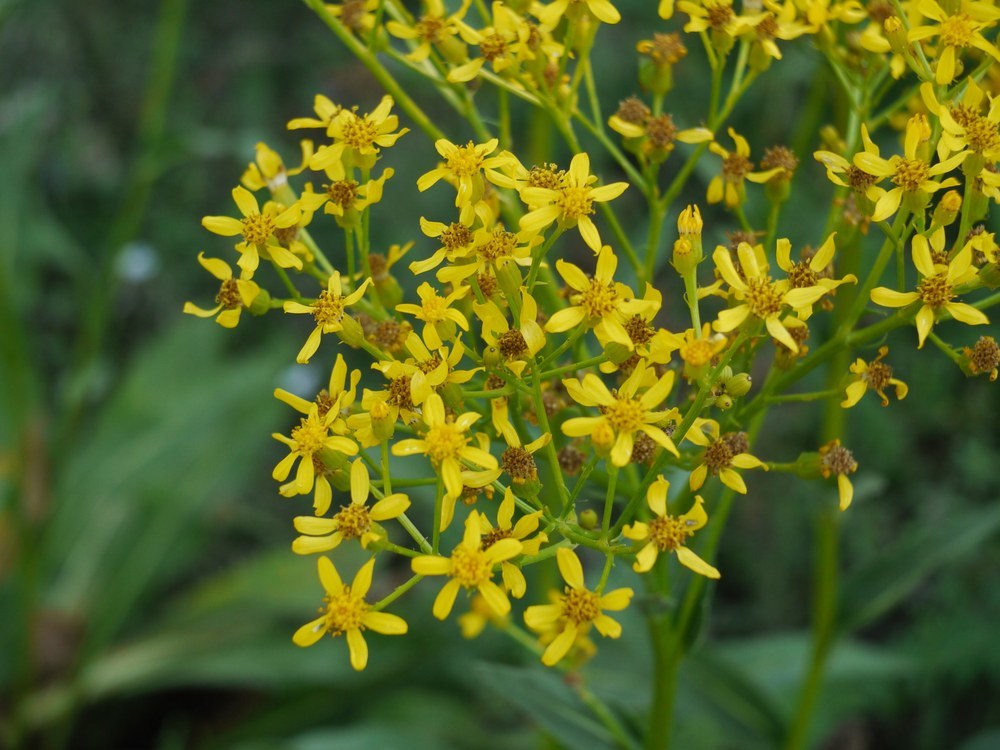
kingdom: Plantae
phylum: Tracheophyta
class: Magnoliopsida
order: Asterales
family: Asteraceae
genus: Senecio
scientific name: Senecio doria
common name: Golden ragwort
